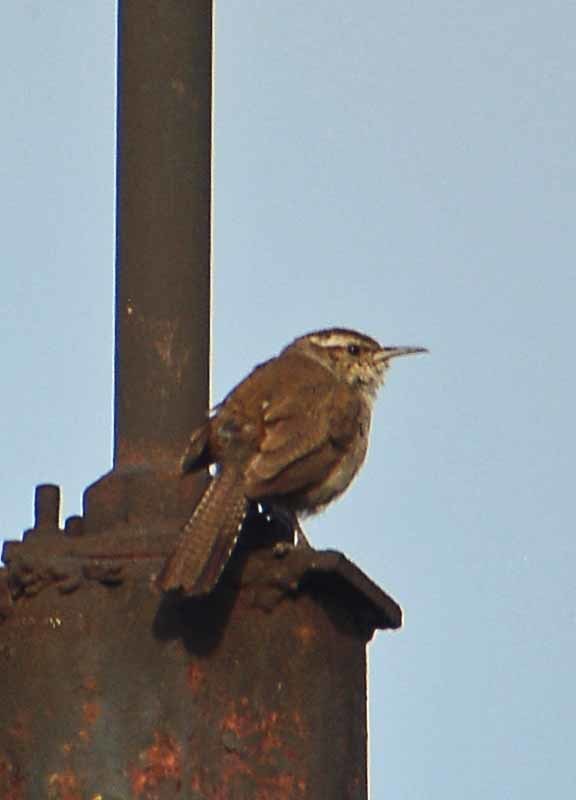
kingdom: Animalia
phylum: Chordata
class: Aves
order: Passeriformes
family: Troglodytidae
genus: Thryomanes
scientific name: Thryomanes bewickii
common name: Bewick's wren
